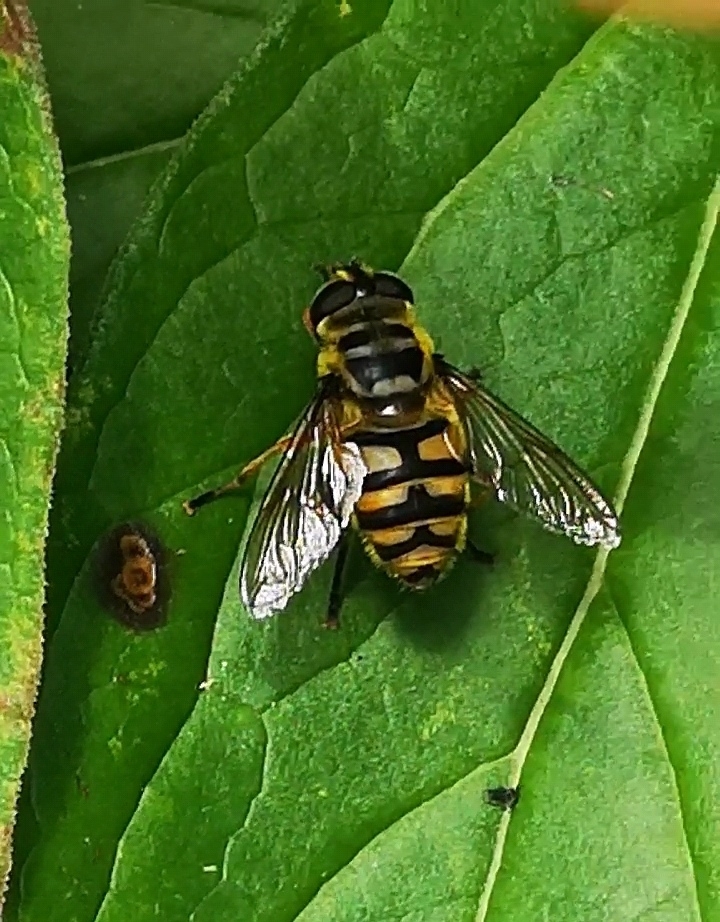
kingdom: Animalia
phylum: Arthropoda
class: Insecta
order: Diptera
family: Syrphidae
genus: Myathropa
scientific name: Myathropa florea
